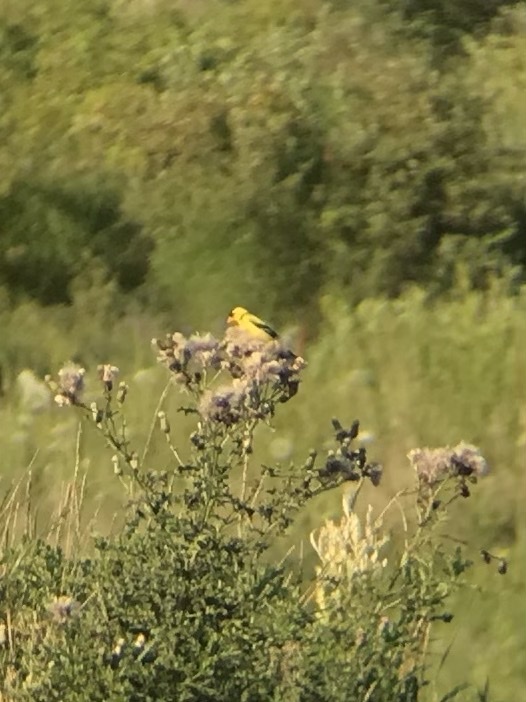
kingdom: Animalia
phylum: Chordata
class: Aves
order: Passeriformes
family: Fringillidae
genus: Spinus
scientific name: Spinus tristis
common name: American goldfinch
